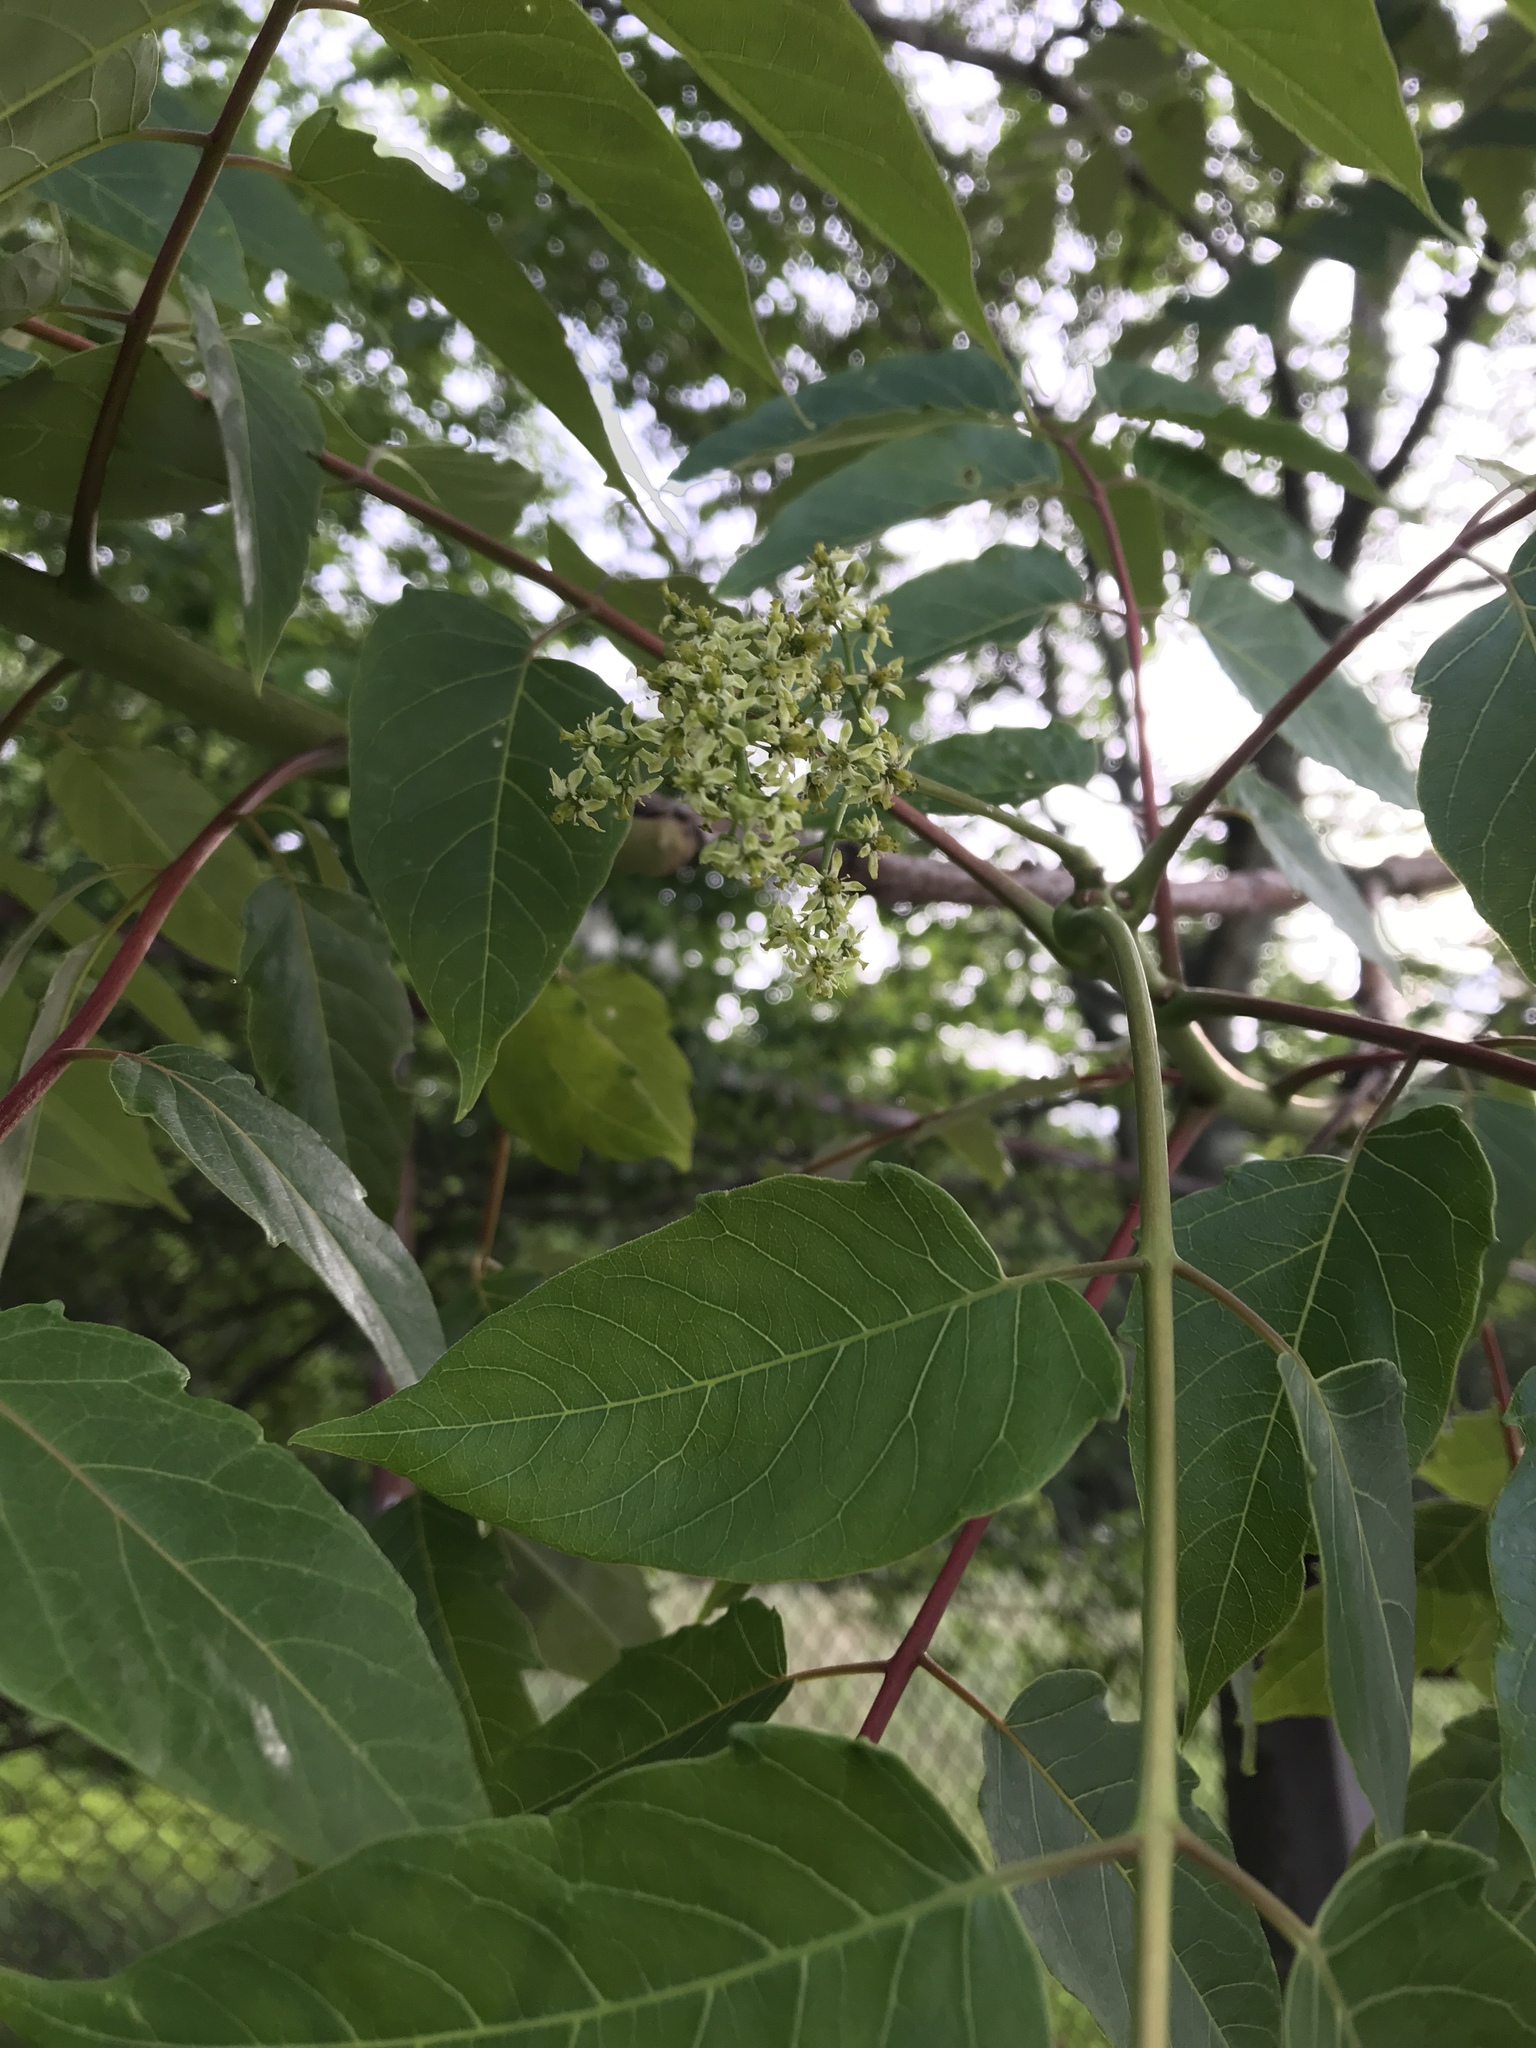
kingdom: Plantae
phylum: Tracheophyta
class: Magnoliopsida
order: Sapindales
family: Simaroubaceae
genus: Ailanthus
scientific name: Ailanthus altissima
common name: Tree-of-heaven
